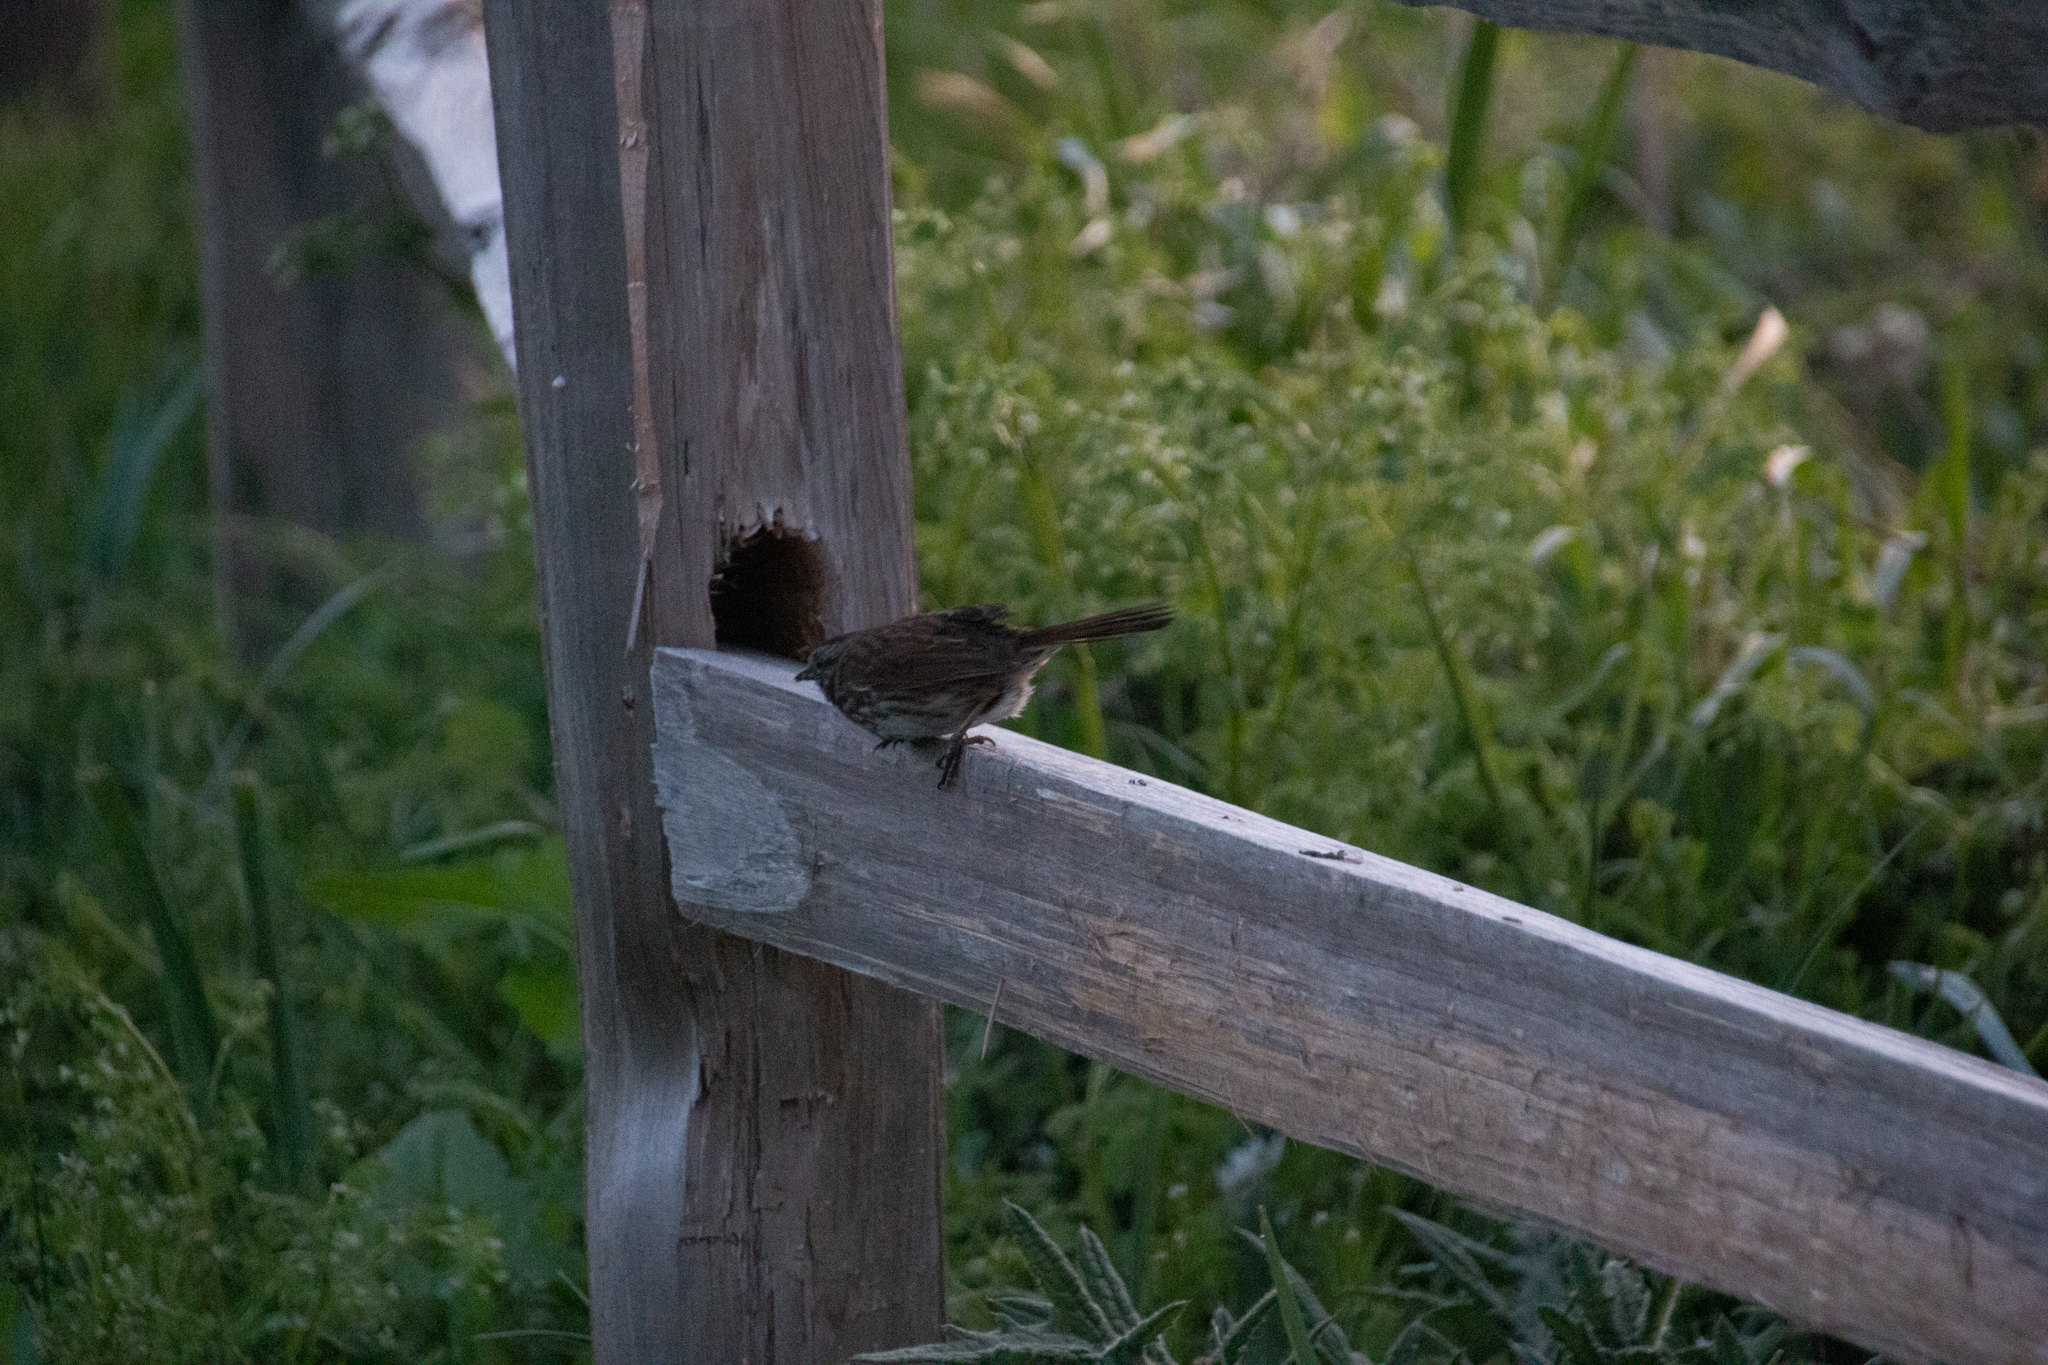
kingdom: Animalia
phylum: Chordata
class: Aves
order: Passeriformes
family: Passerellidae
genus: Melospiza
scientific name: Melospiza melodia
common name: Song sparrow
